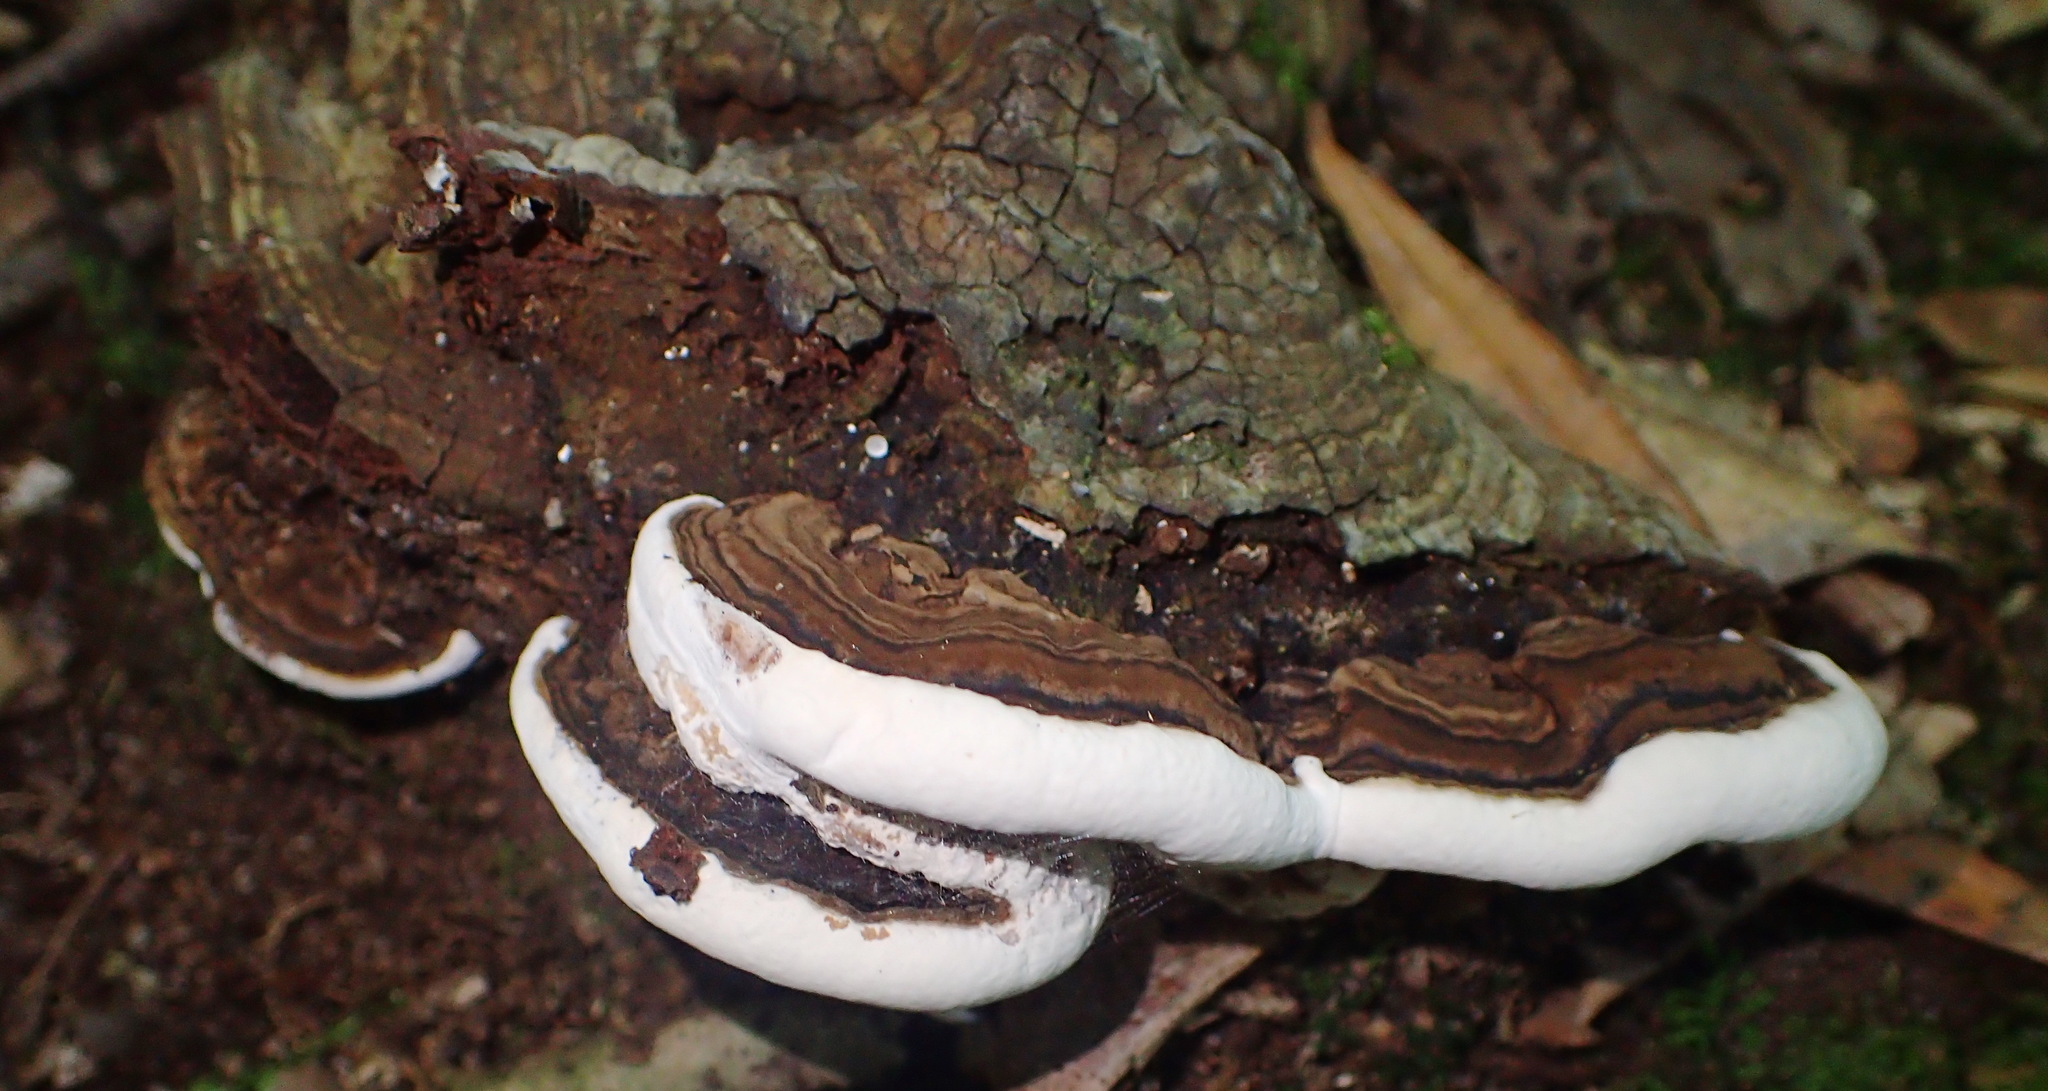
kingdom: Fungi
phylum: Basidiomycota
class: Agaricomycetes
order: Polyporales
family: Polyporaceae
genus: Ganoderma
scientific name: Ganoderma applanatum
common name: Artist's bracket
